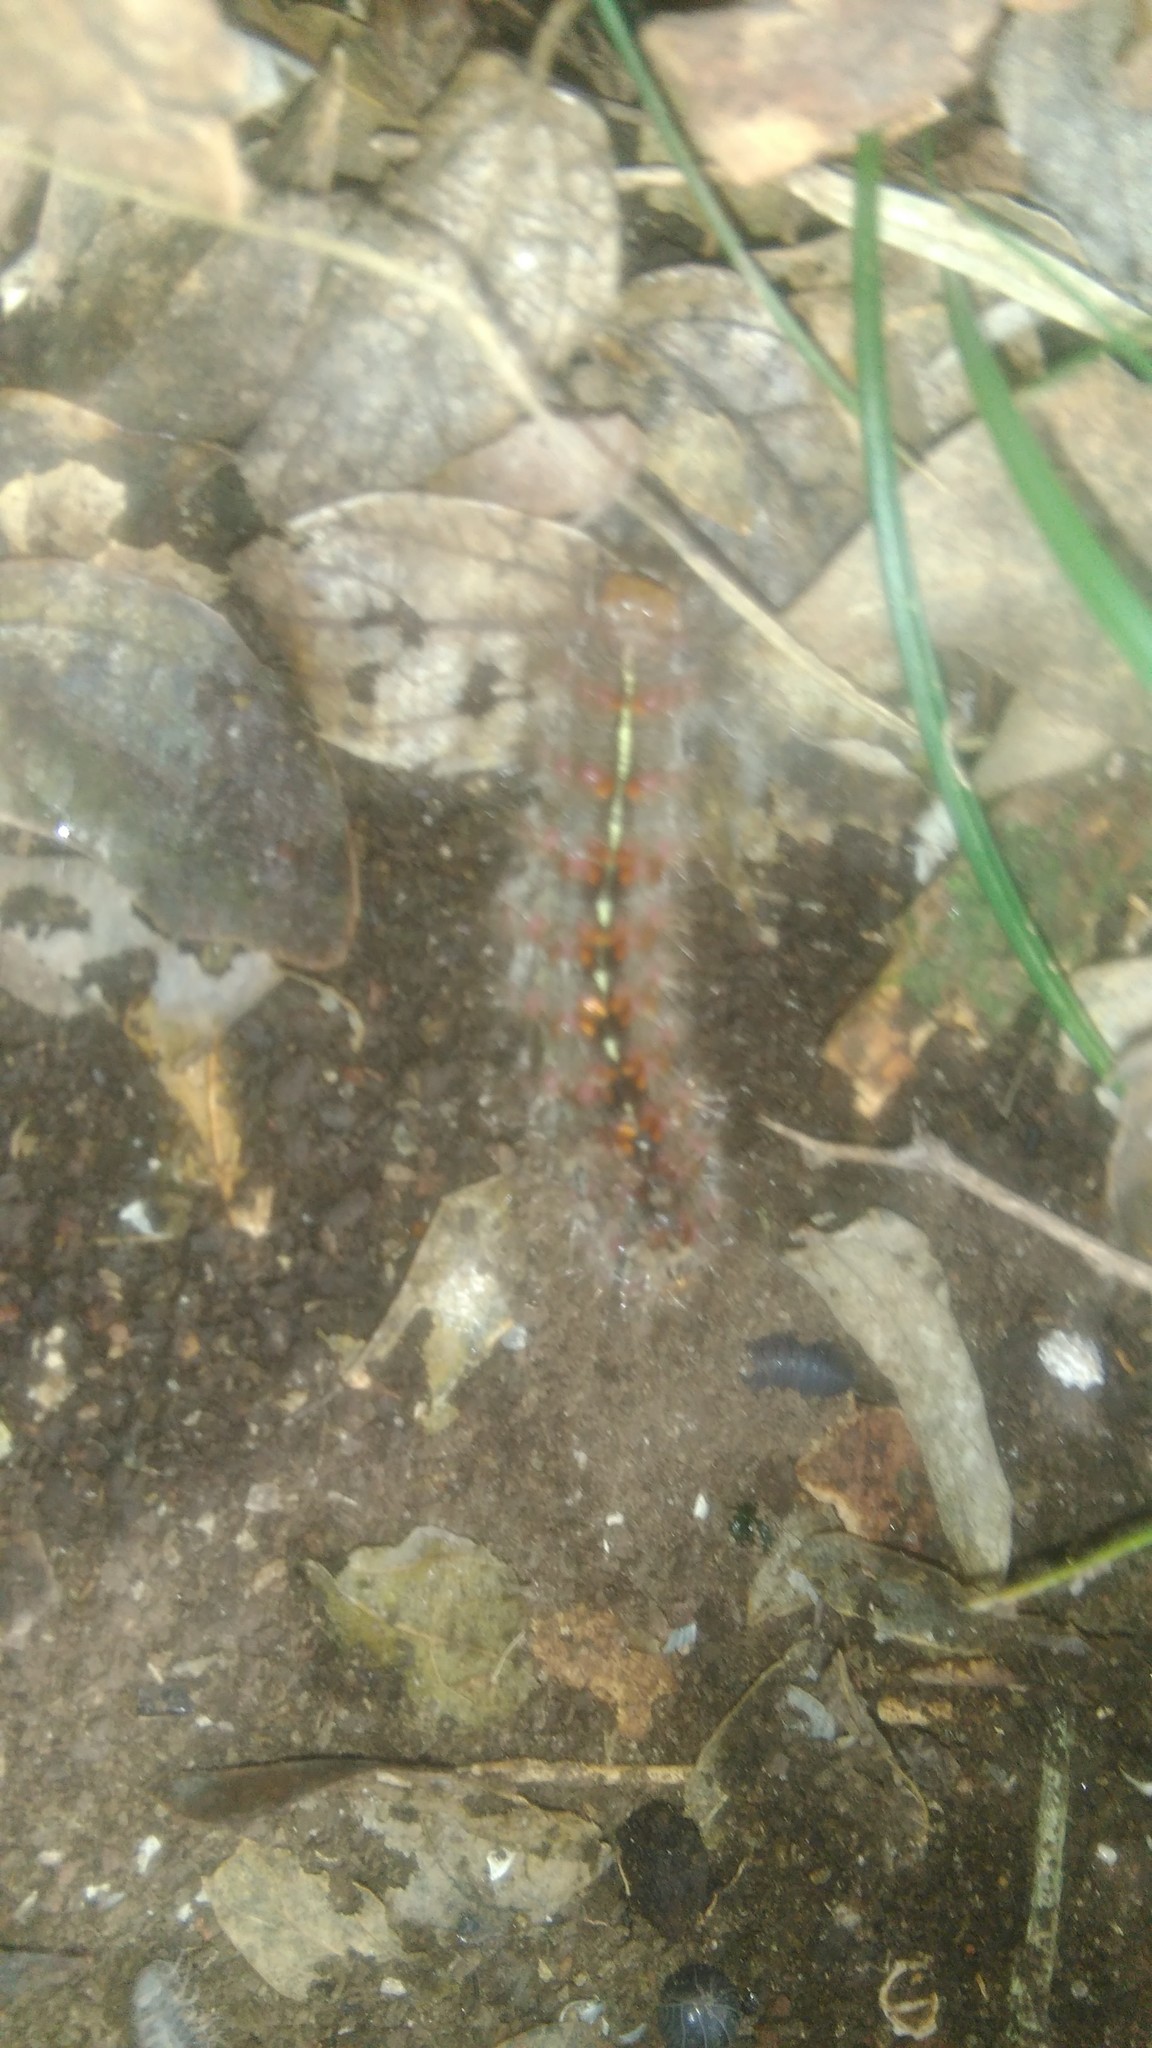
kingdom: Animalia
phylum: Arthropoda
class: Insecta
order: Lepidoptera
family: Erebidae
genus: Paracles
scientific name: Paracles fusca
